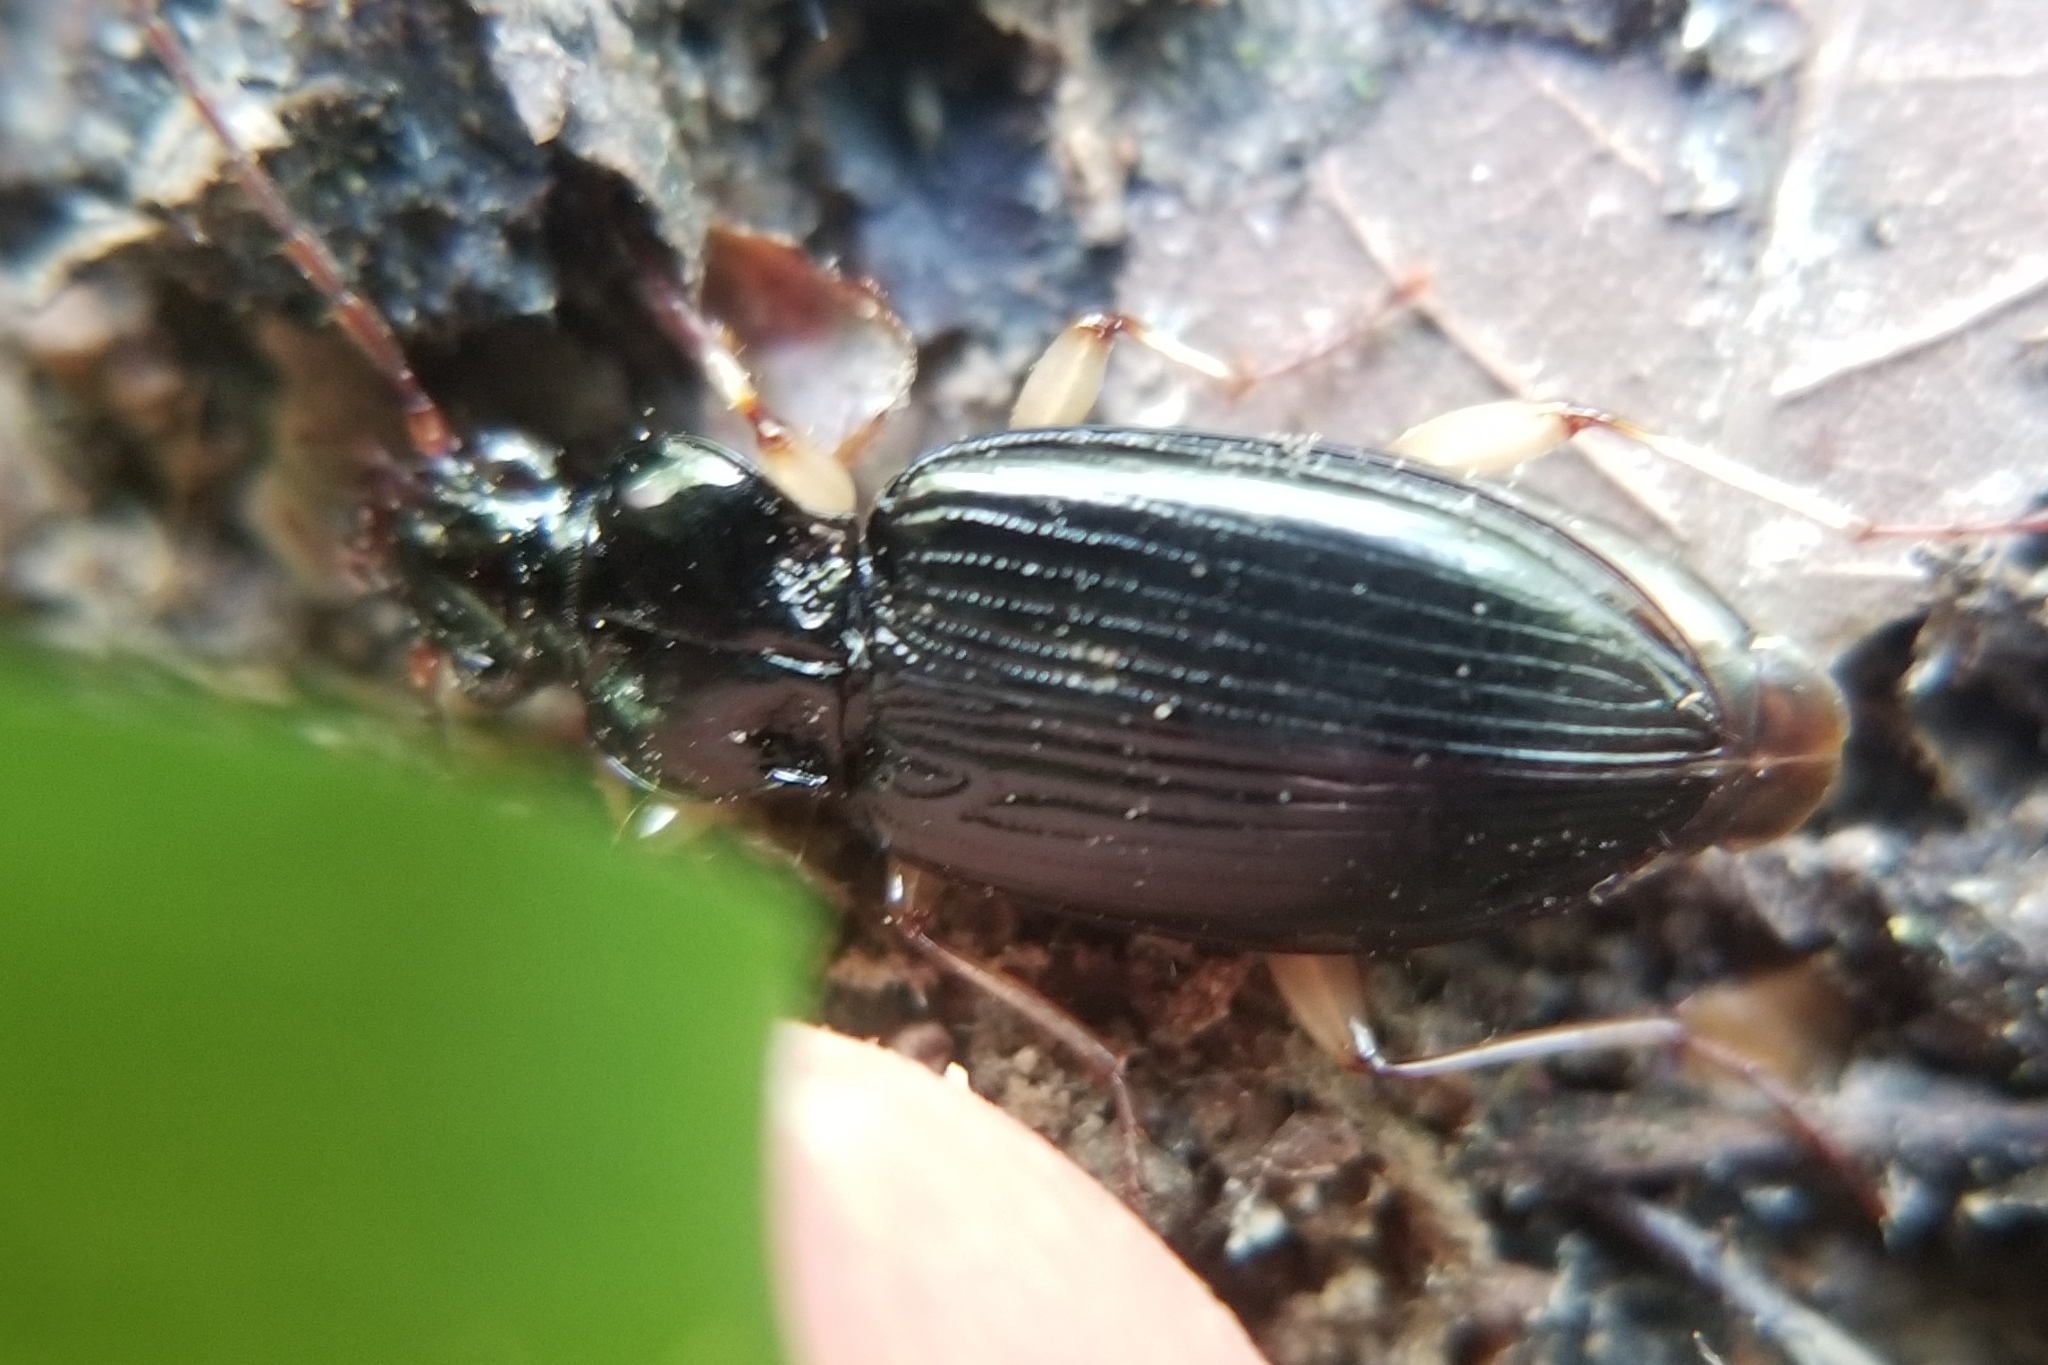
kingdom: Animalia
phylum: Arthropoda
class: Insecta
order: Coleoptera
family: Carabidae
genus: Patrobus
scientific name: Patrobus longicornis
